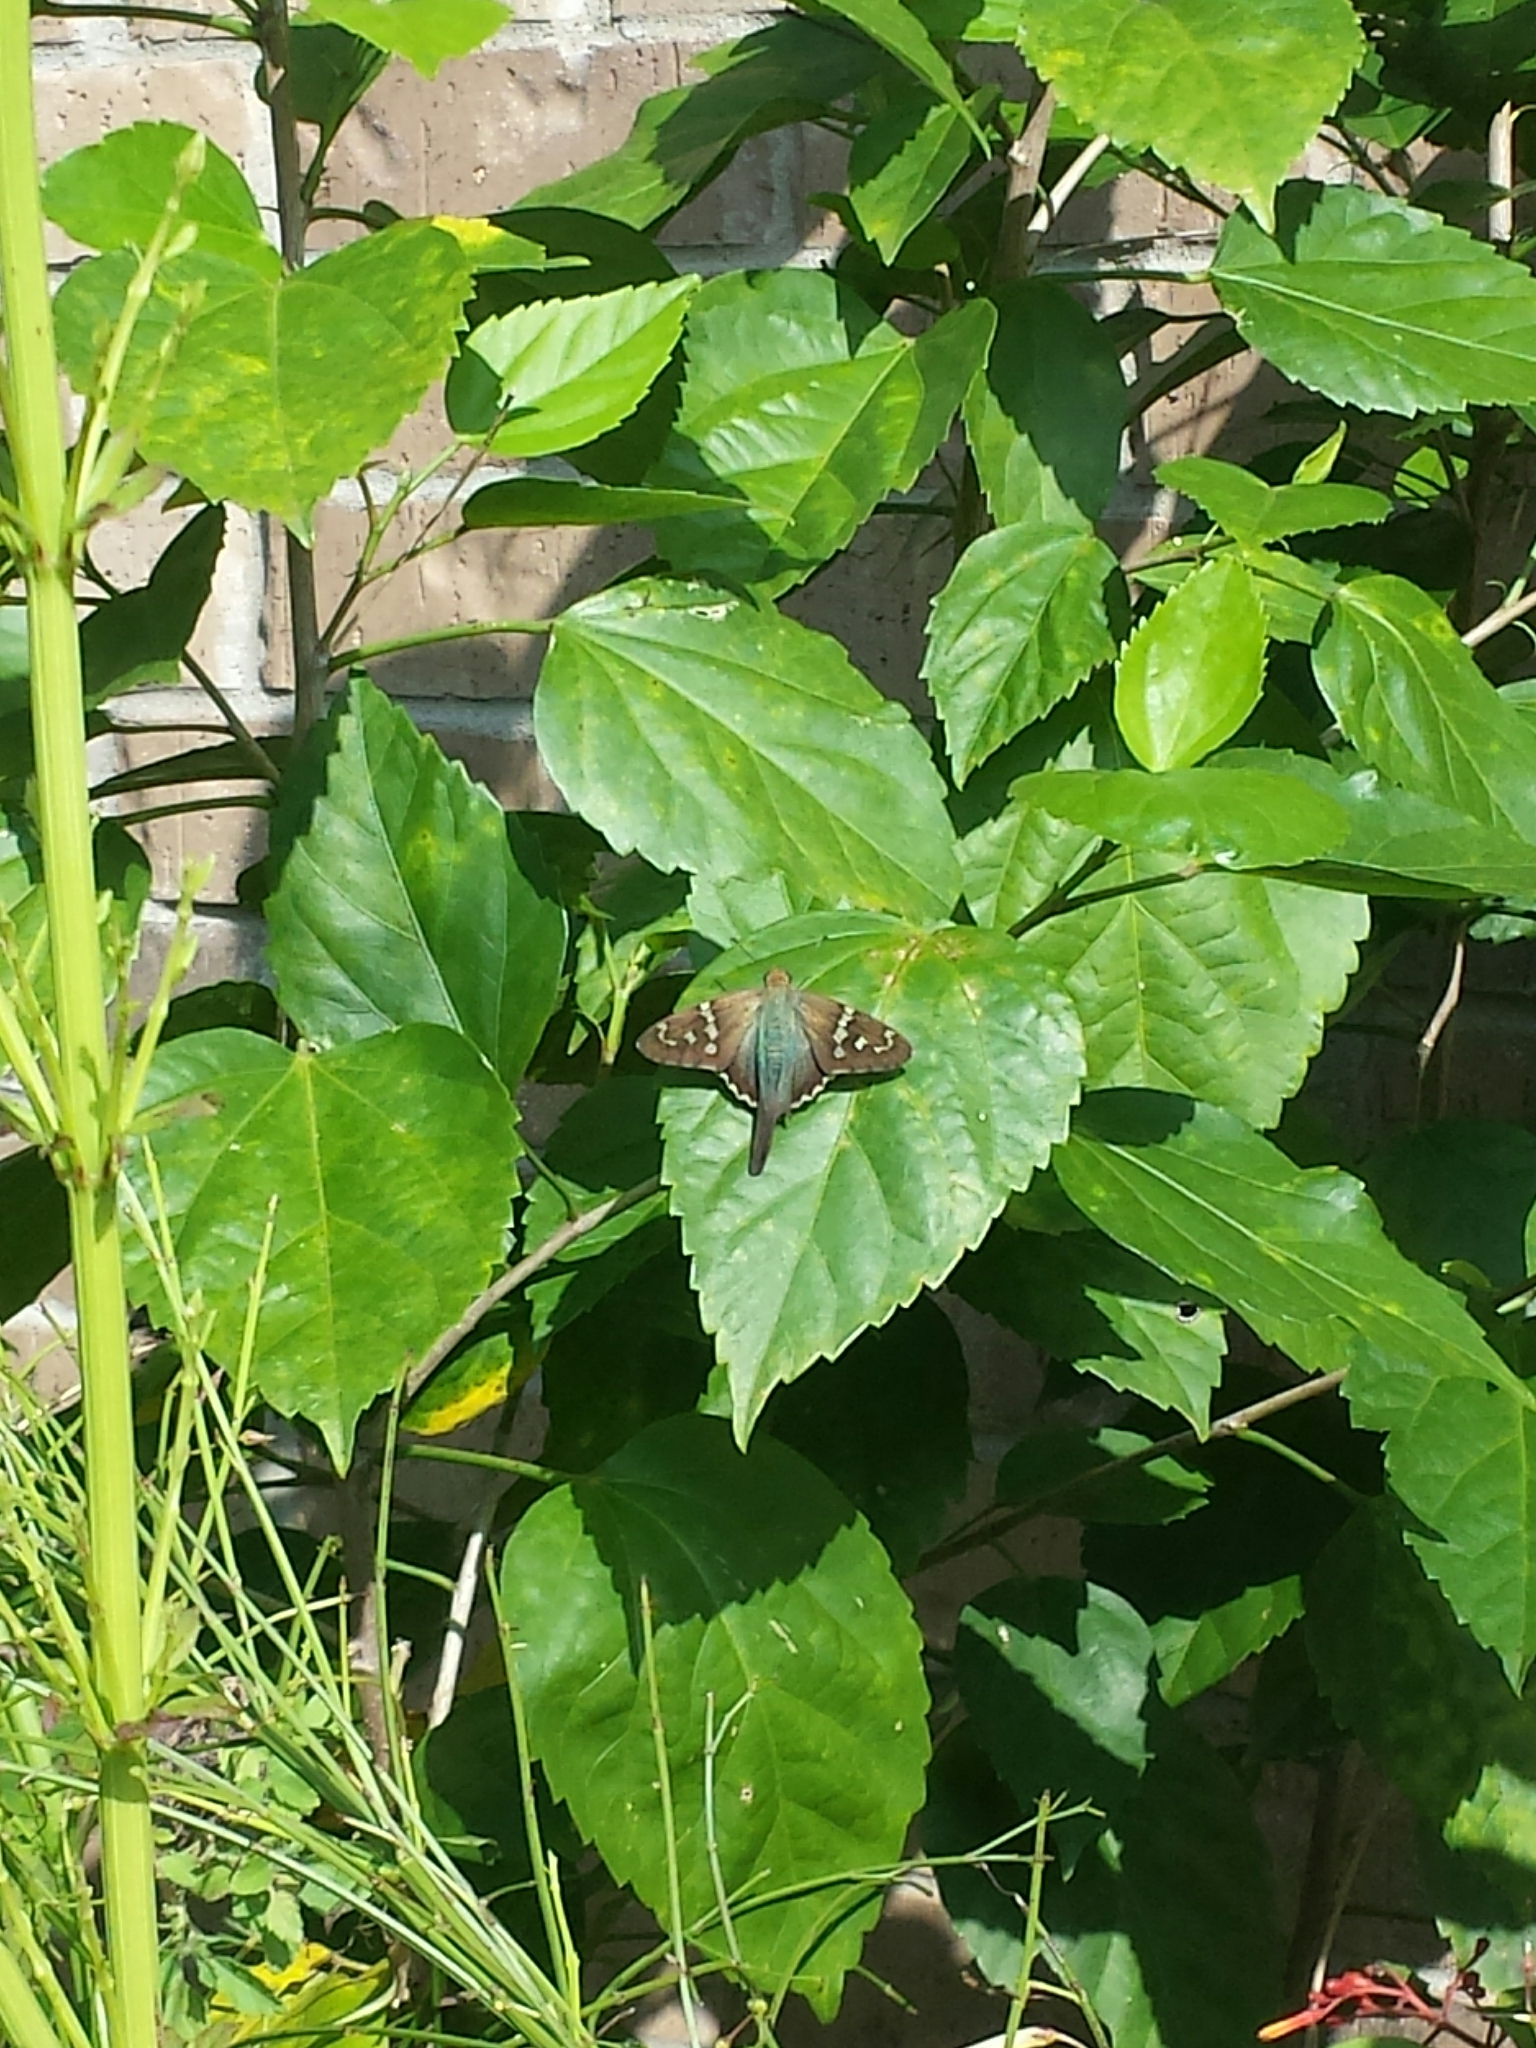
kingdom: Animalia
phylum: Arthropoda
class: Insecta
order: Lepidoptera
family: Hesperiidae
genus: Urbanus
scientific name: Urbanus proteus
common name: Long-tailed skipper
